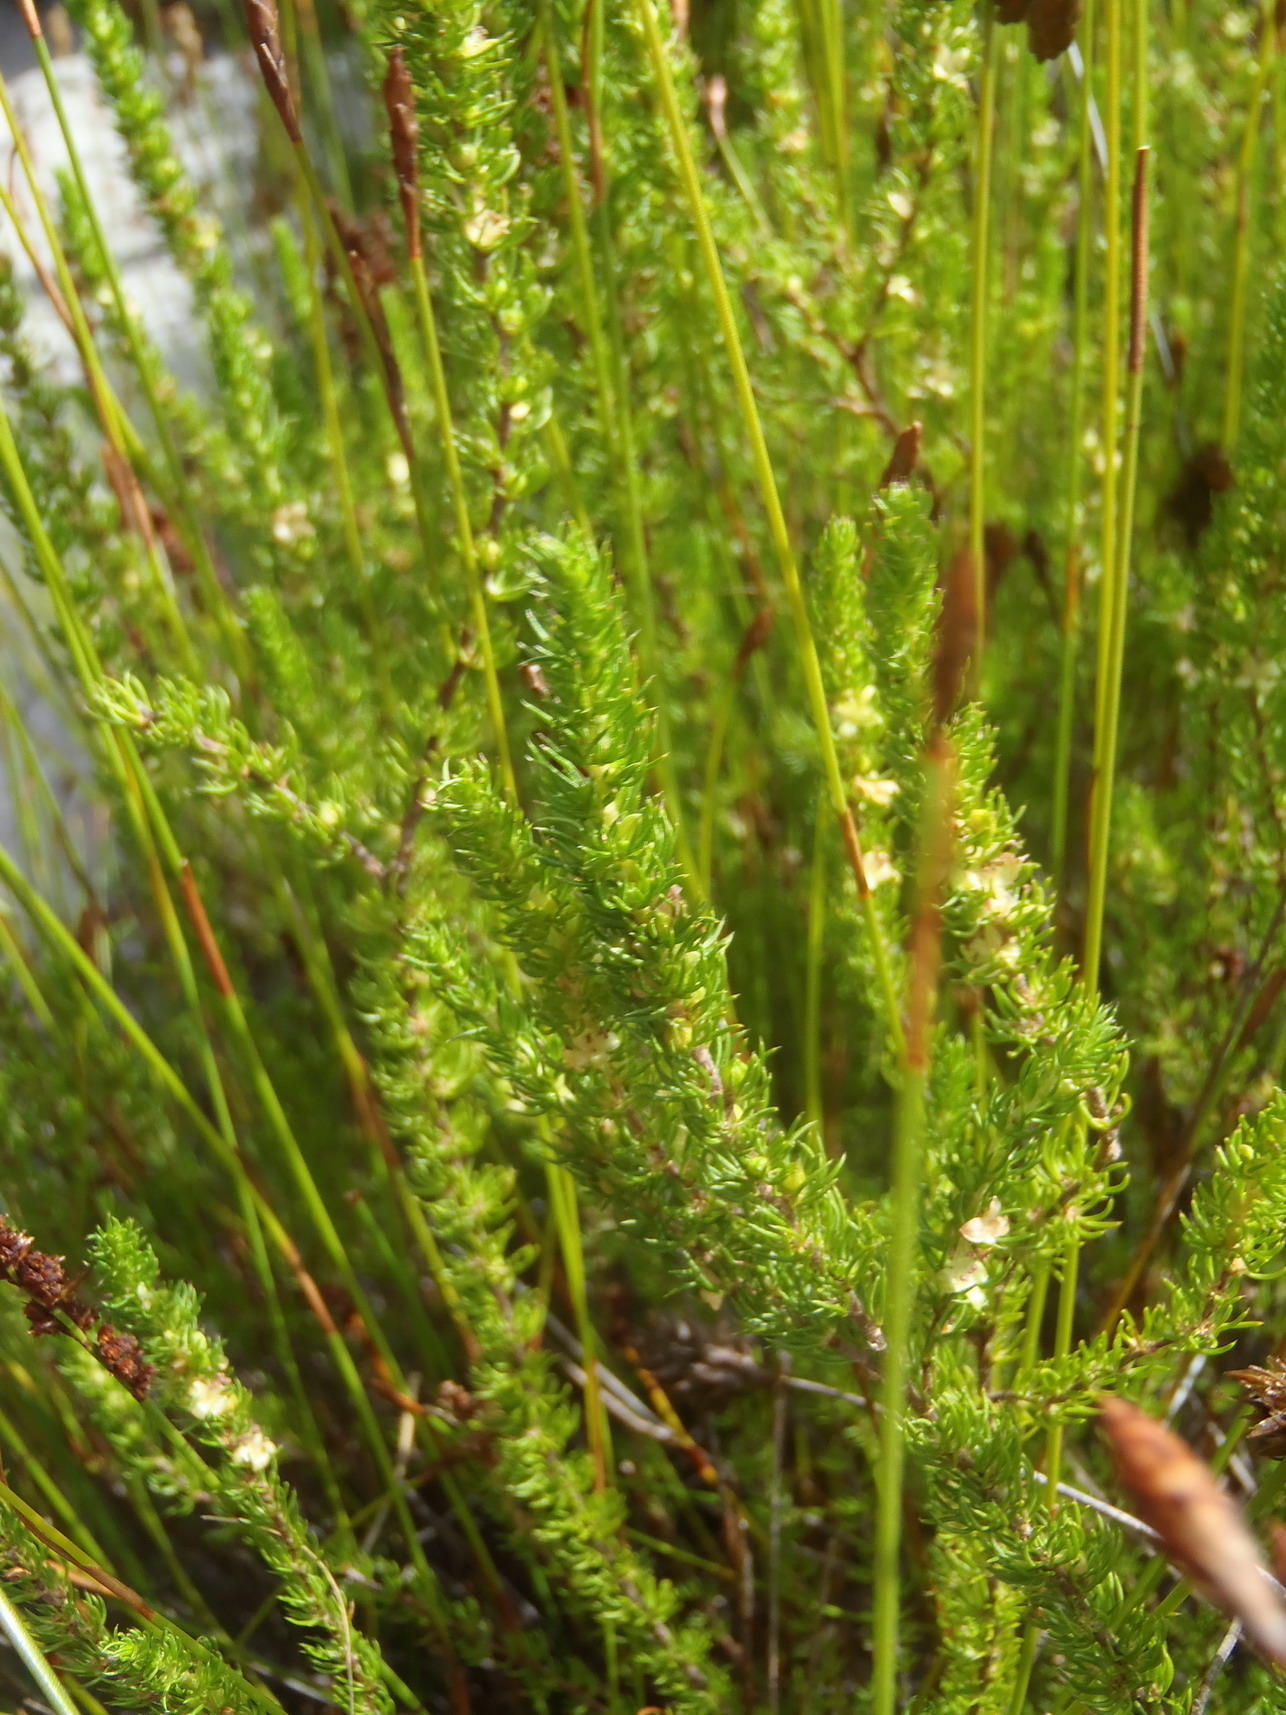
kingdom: Plantae
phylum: Tracheophyta
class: Magnoliopsida
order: Rosales
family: Rosaceae
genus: Cliffortia
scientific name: Cliffortia subsetacea
